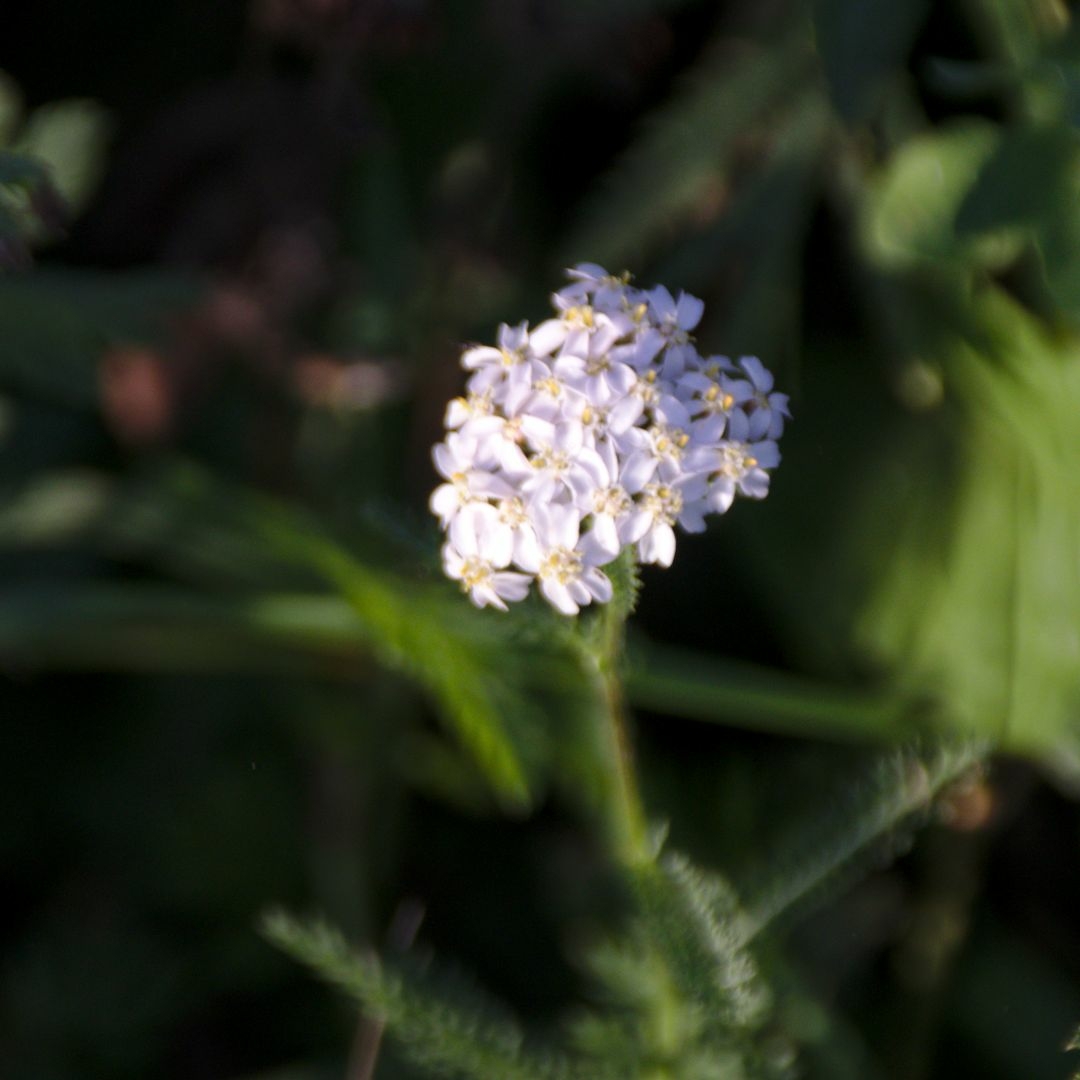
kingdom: Plantae
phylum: Tracheophyta
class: Magnoliopsida
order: Asterales
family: Asteraceae
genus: Achillea
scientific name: Achillea millefolium
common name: Yarrow
